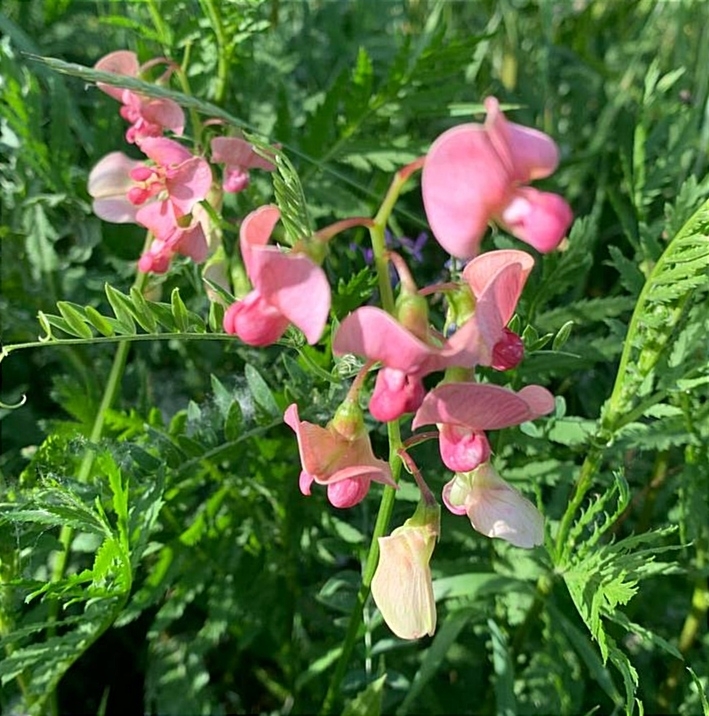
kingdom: Plantae
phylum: Tracheophyta
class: Magnoliopsida
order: Fabales
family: Fabaceae
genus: Lathyrus
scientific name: Lathyrus sylvestris
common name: Flat pea
